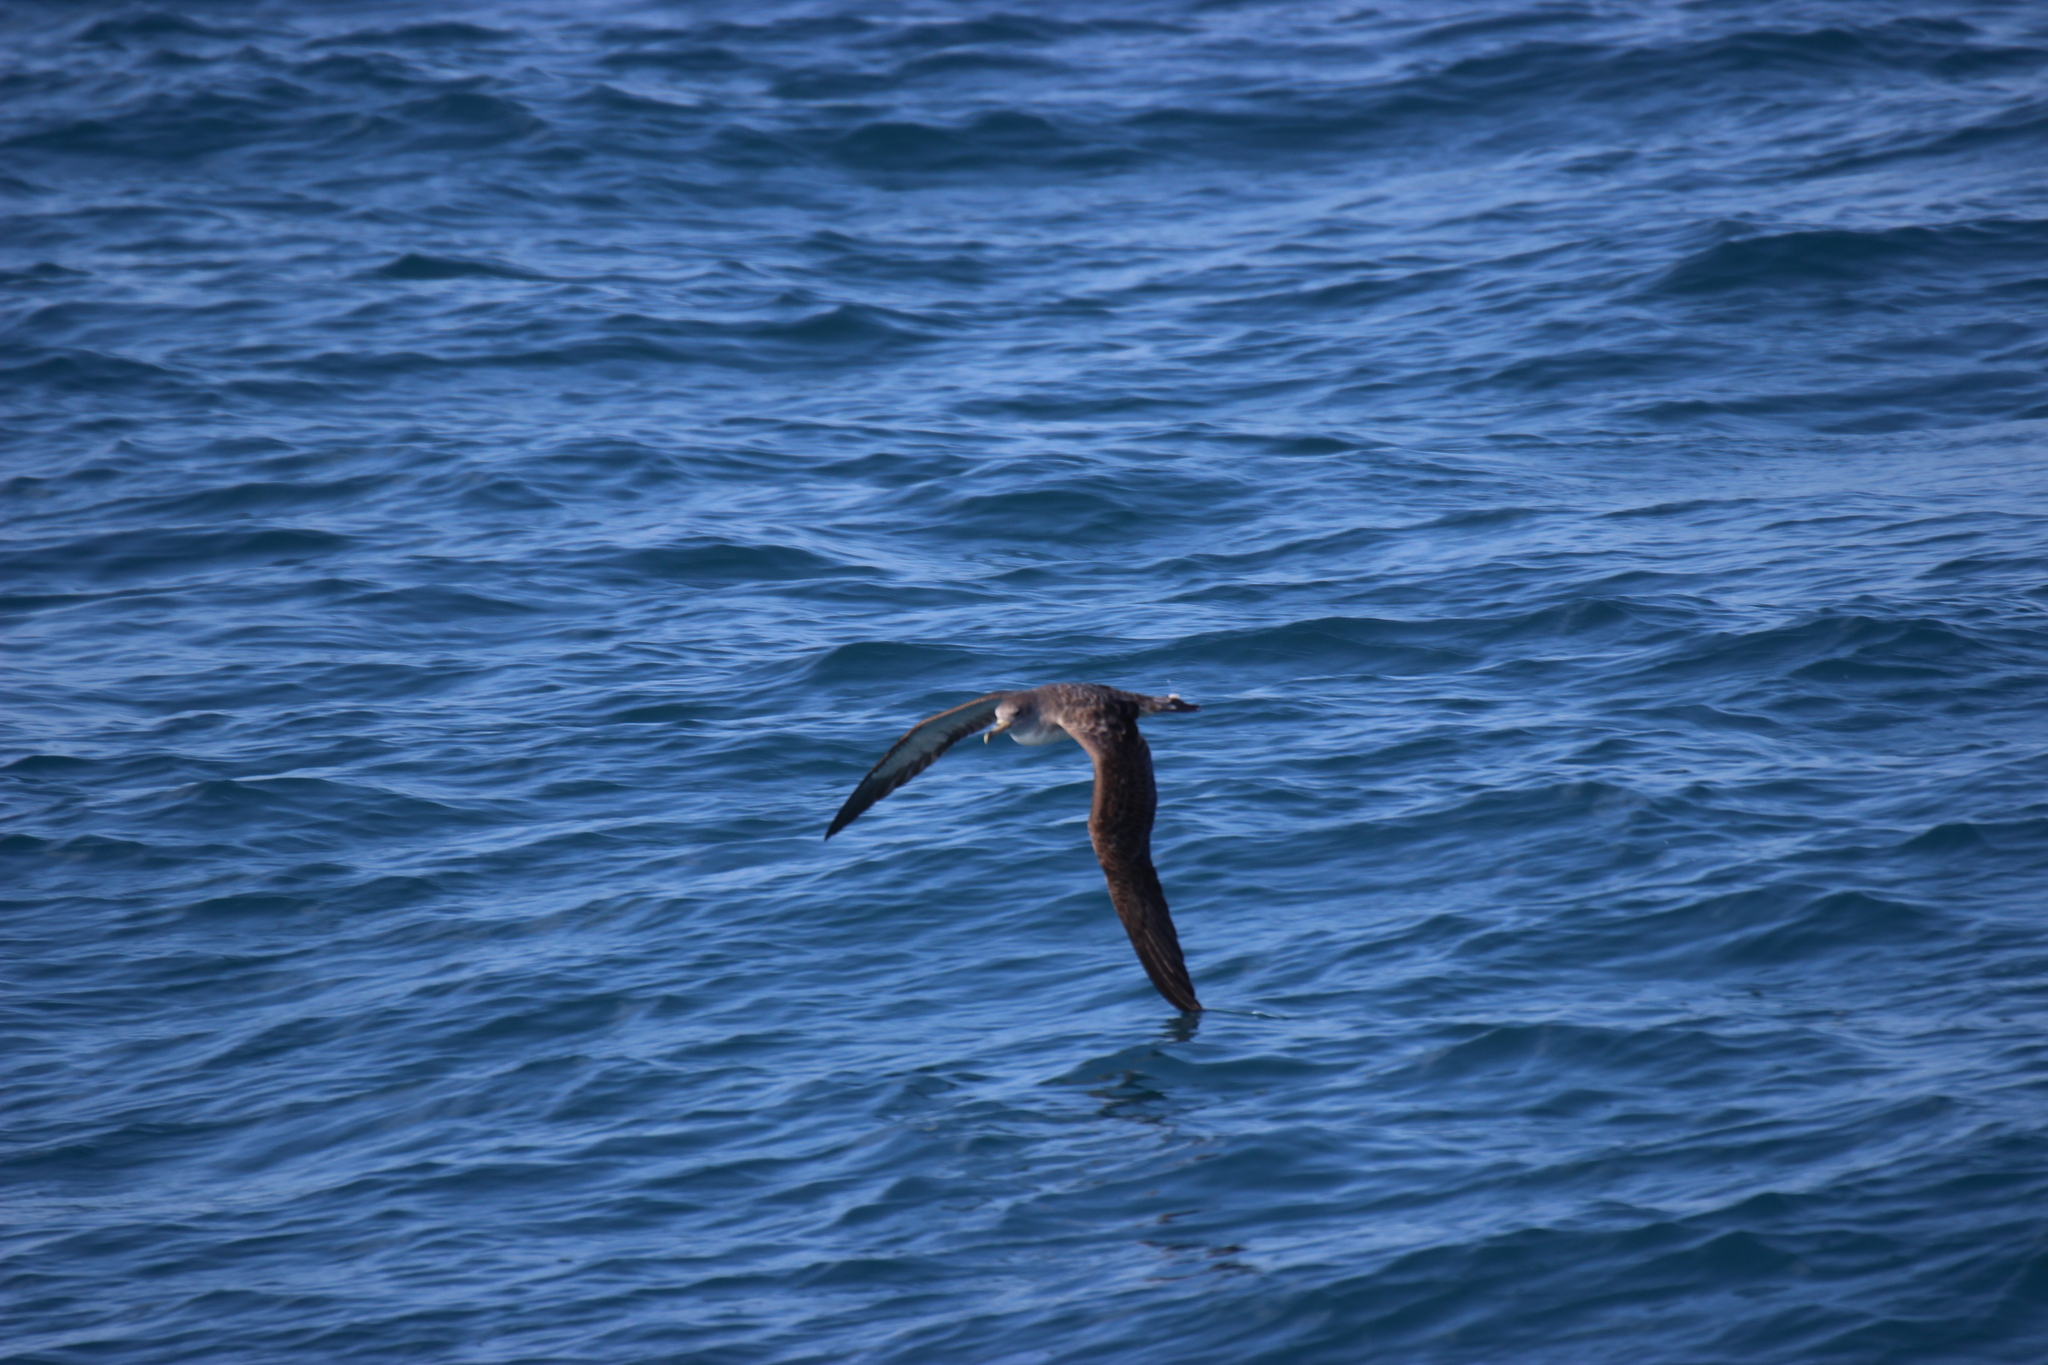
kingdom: Animalia
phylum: Chordata
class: Aves
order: Procellariiformes
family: Procellariidae
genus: Calonectris
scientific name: Calonectris diomedea
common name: Cory's shearwater
